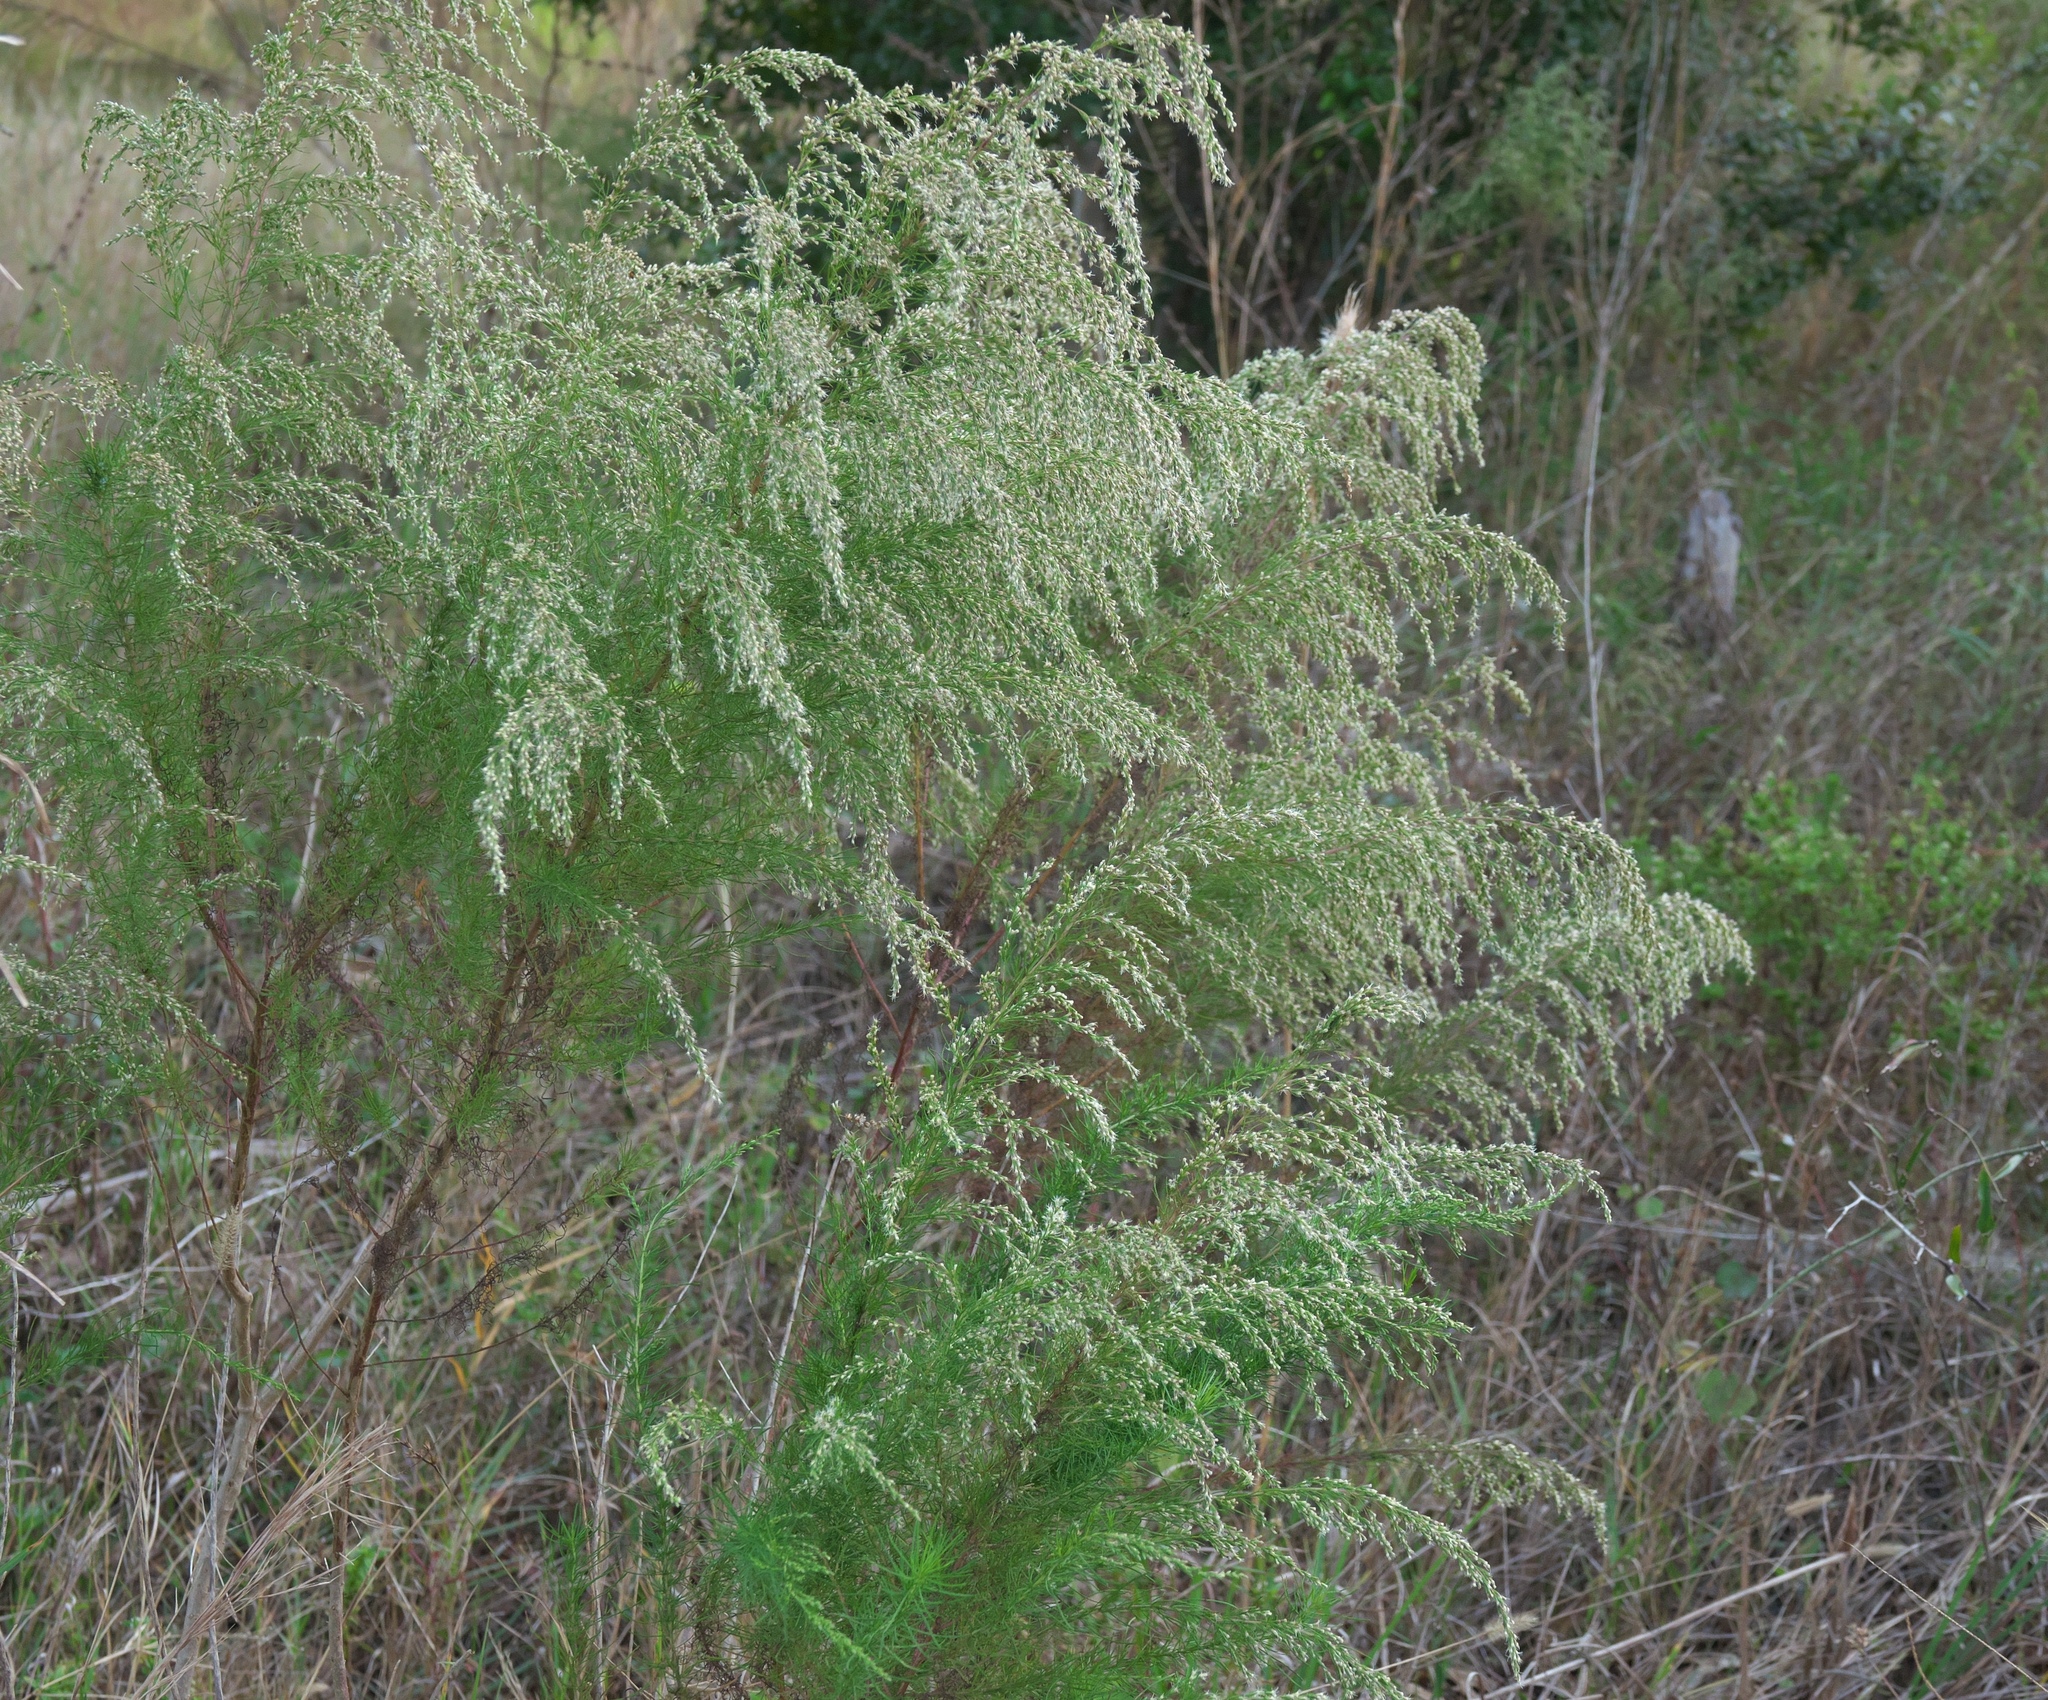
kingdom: Plantae
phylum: Tracheophyta
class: Magnoliopsida
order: Asterales
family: Asteraceae
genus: Eupatorium
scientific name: Eupatorium capillifolium
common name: Dog-fennel
